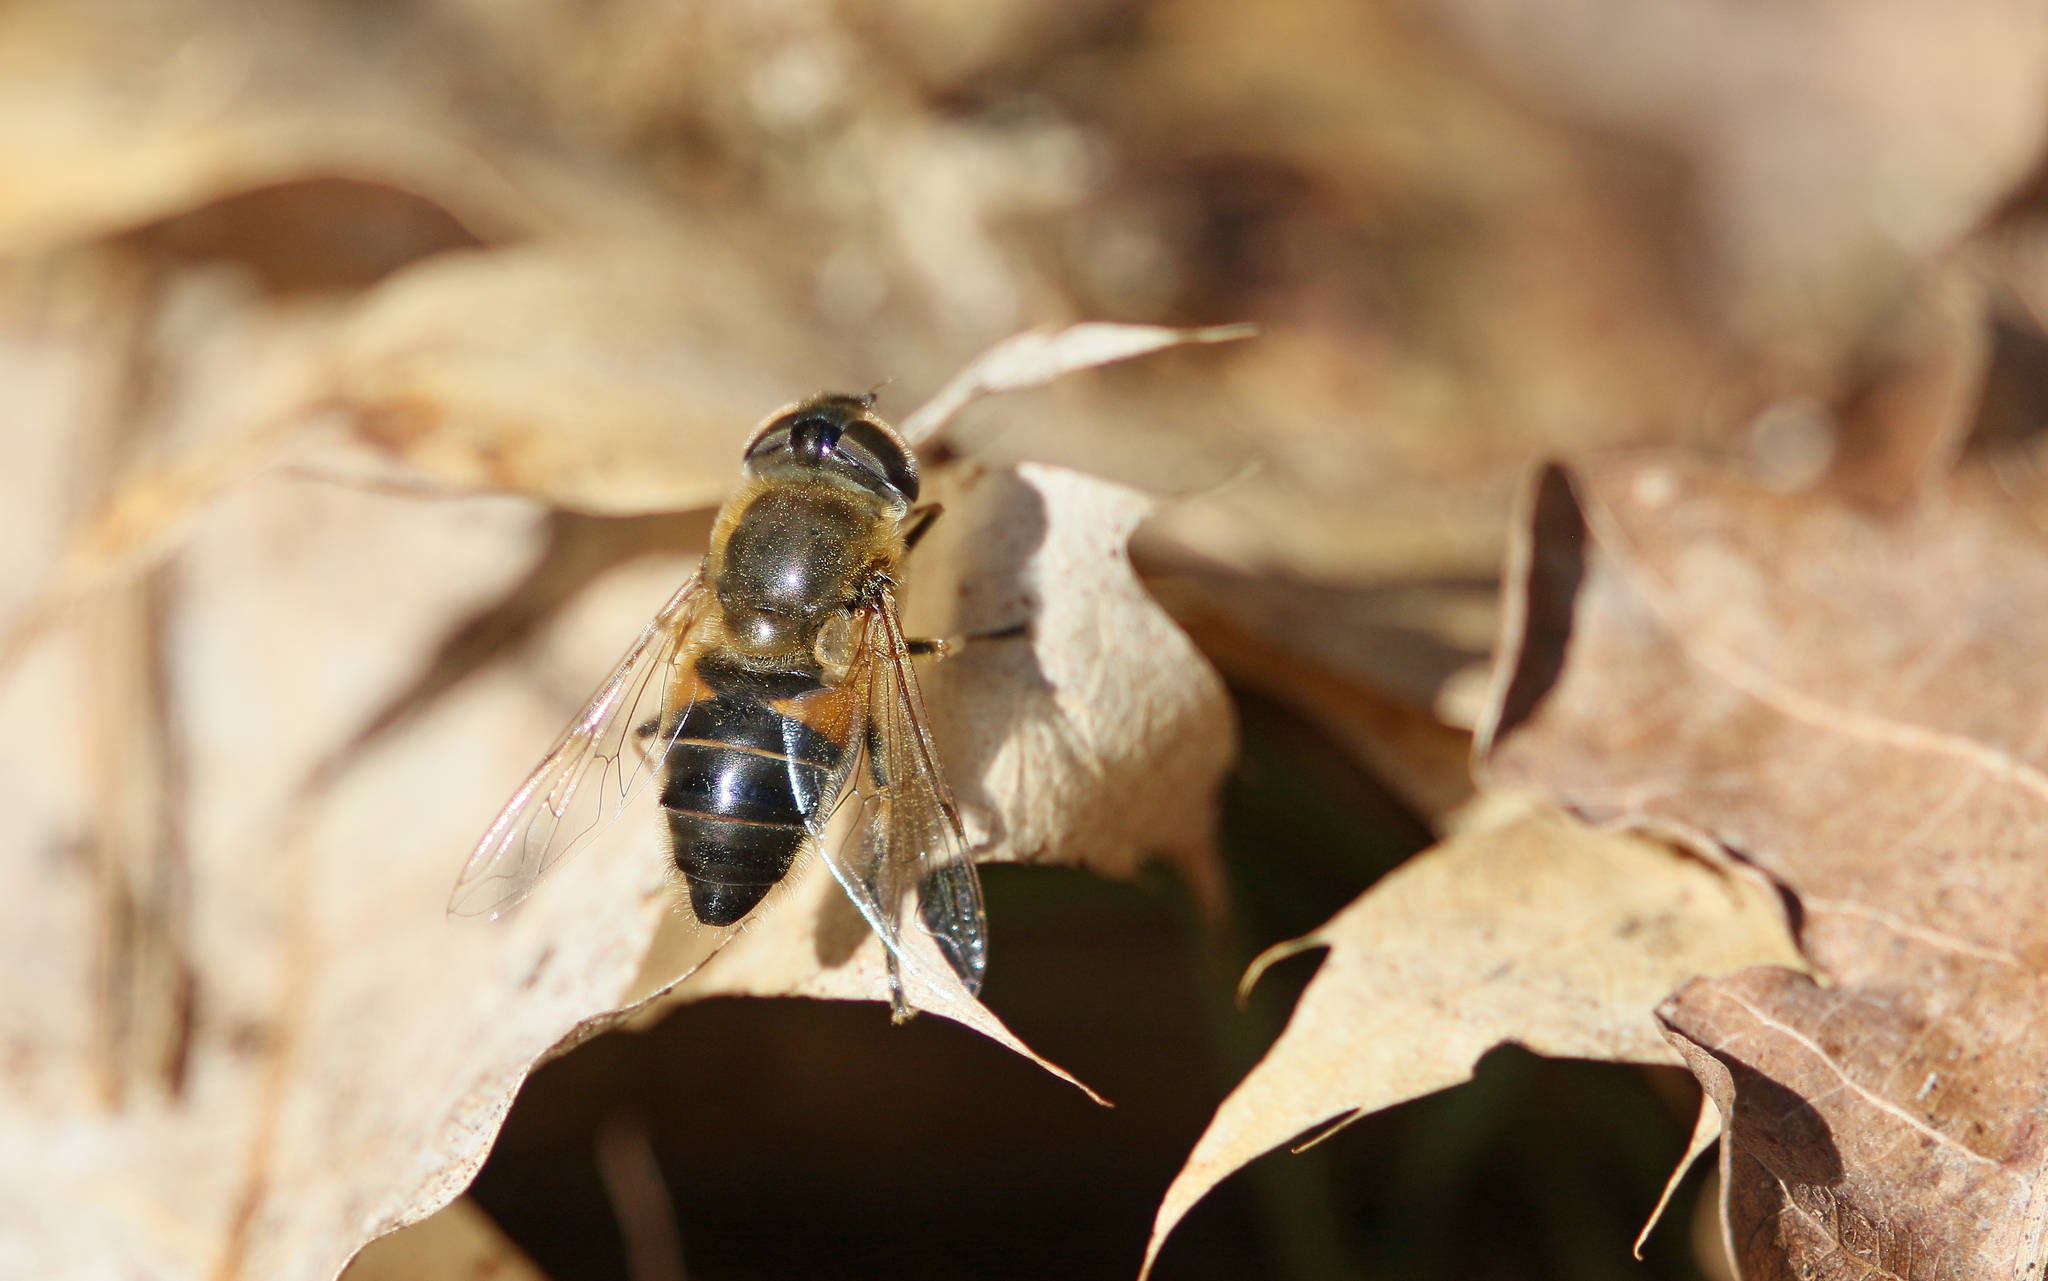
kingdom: Animalia
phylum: Arthropoda
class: Insecta
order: Diptera
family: Syrphidae
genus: Eristalis
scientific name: Eristalis pertinax
